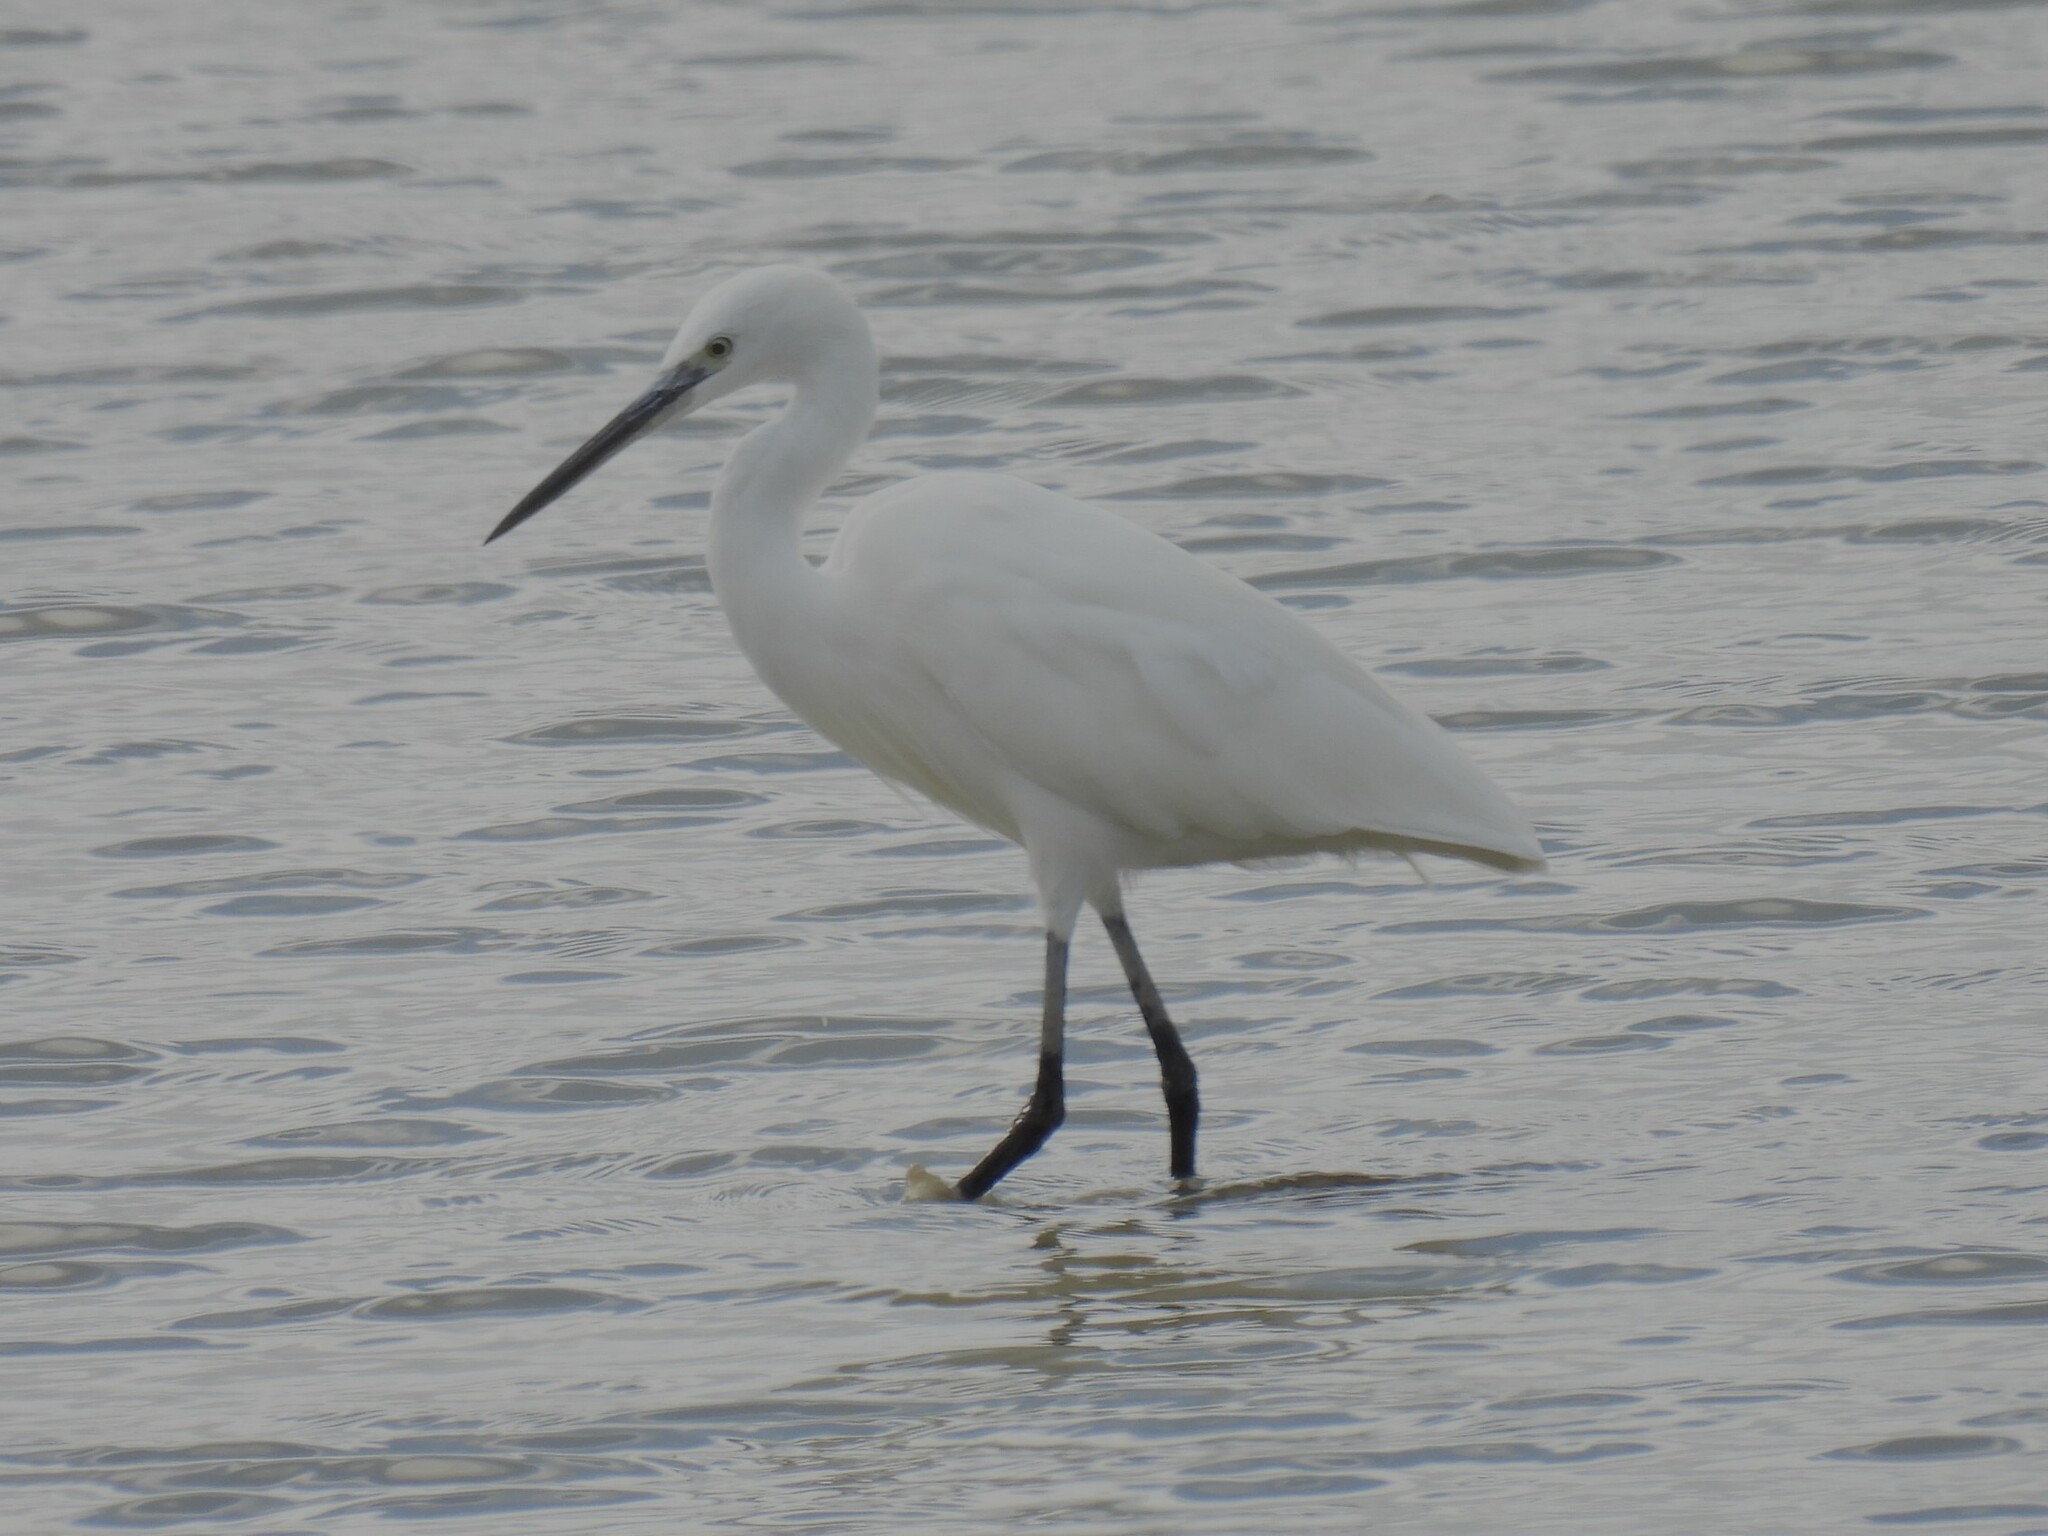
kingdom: Animalia
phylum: Chordata
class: Aves
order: Pelecaniformes
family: Ardeidae
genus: Egretta
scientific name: Egretta garzetta
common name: Little egret
